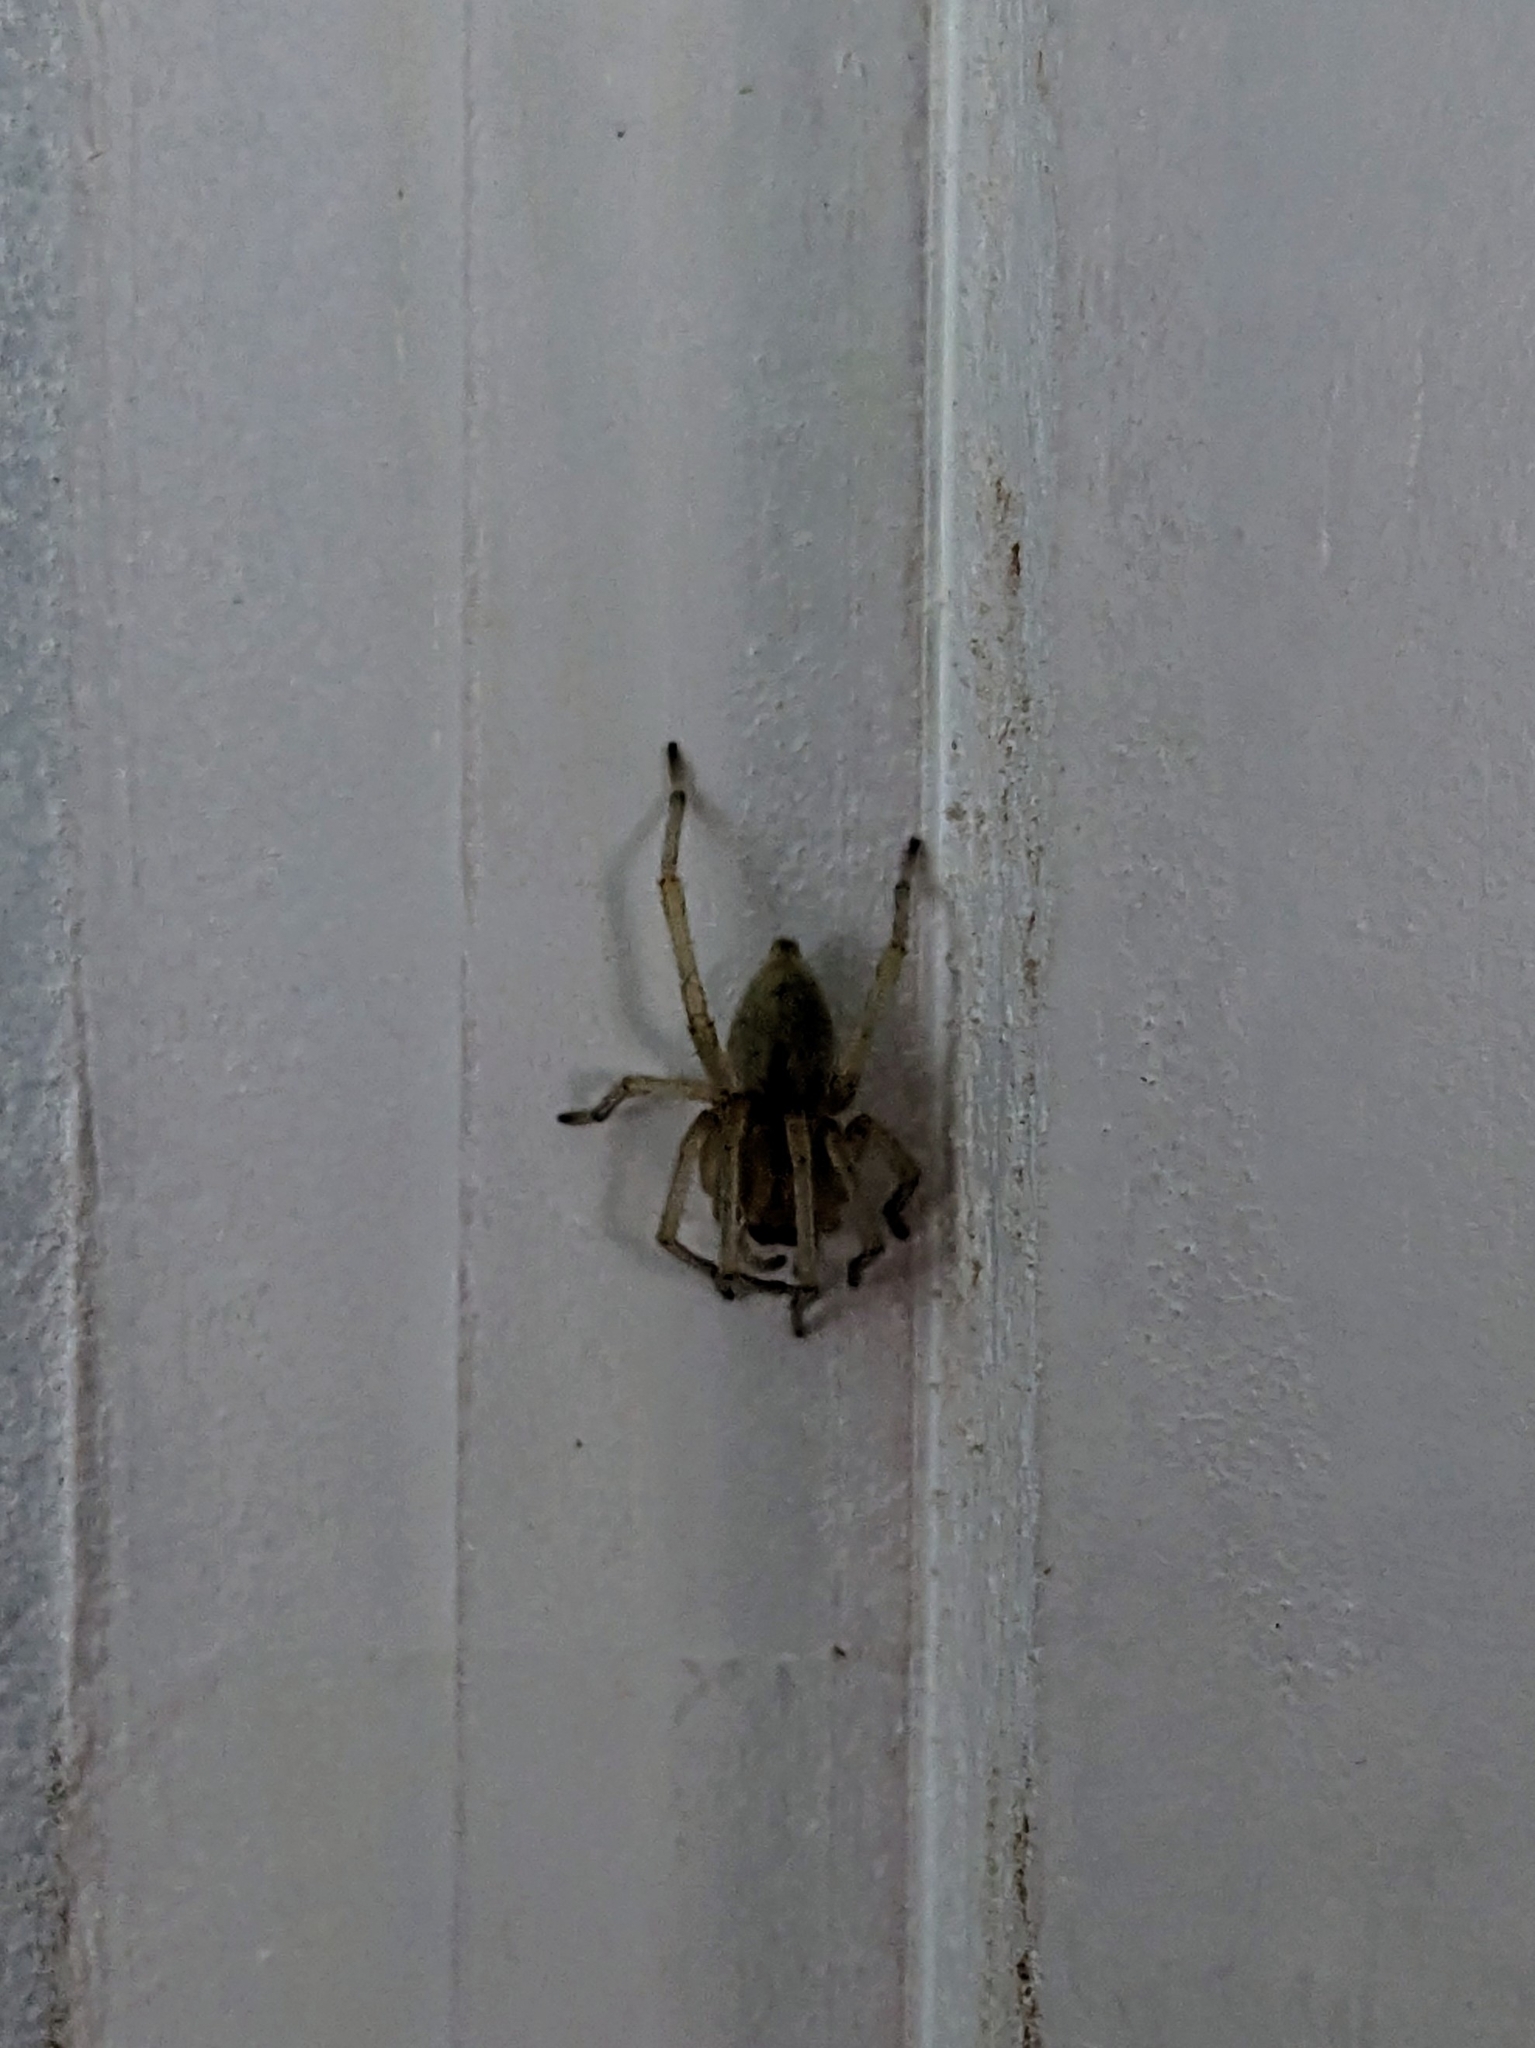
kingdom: Animalia
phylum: Arthropoda
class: Arachnida
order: Araneae
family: Cheiracanthiidae
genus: Cheiracanthium
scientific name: Cheiracanthium mildei
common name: Northern yellow sac spider
